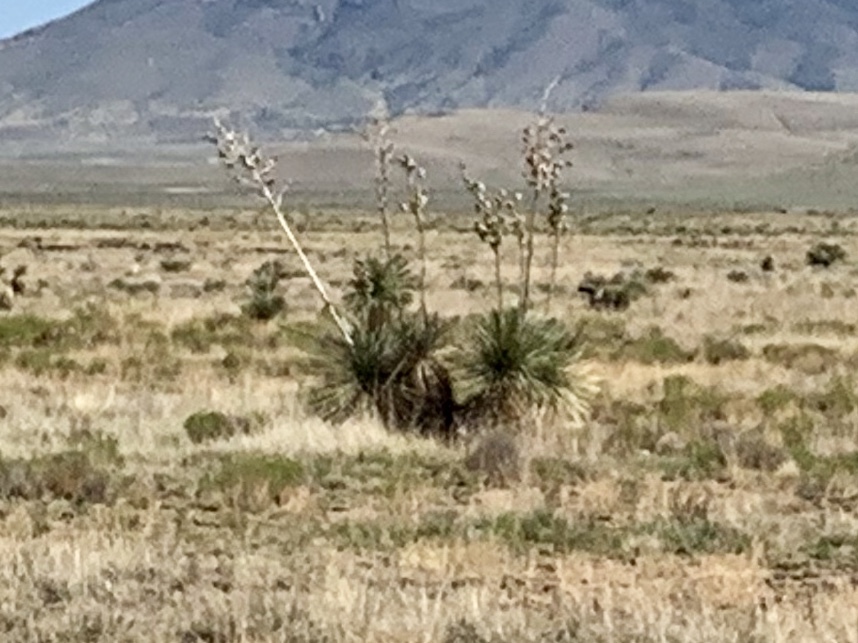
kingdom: Plantae
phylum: Tracheophyta
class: Liliopsida
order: Asparagales
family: Asparagaceae
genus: Yucca
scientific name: Yucca elata
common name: Palmella
